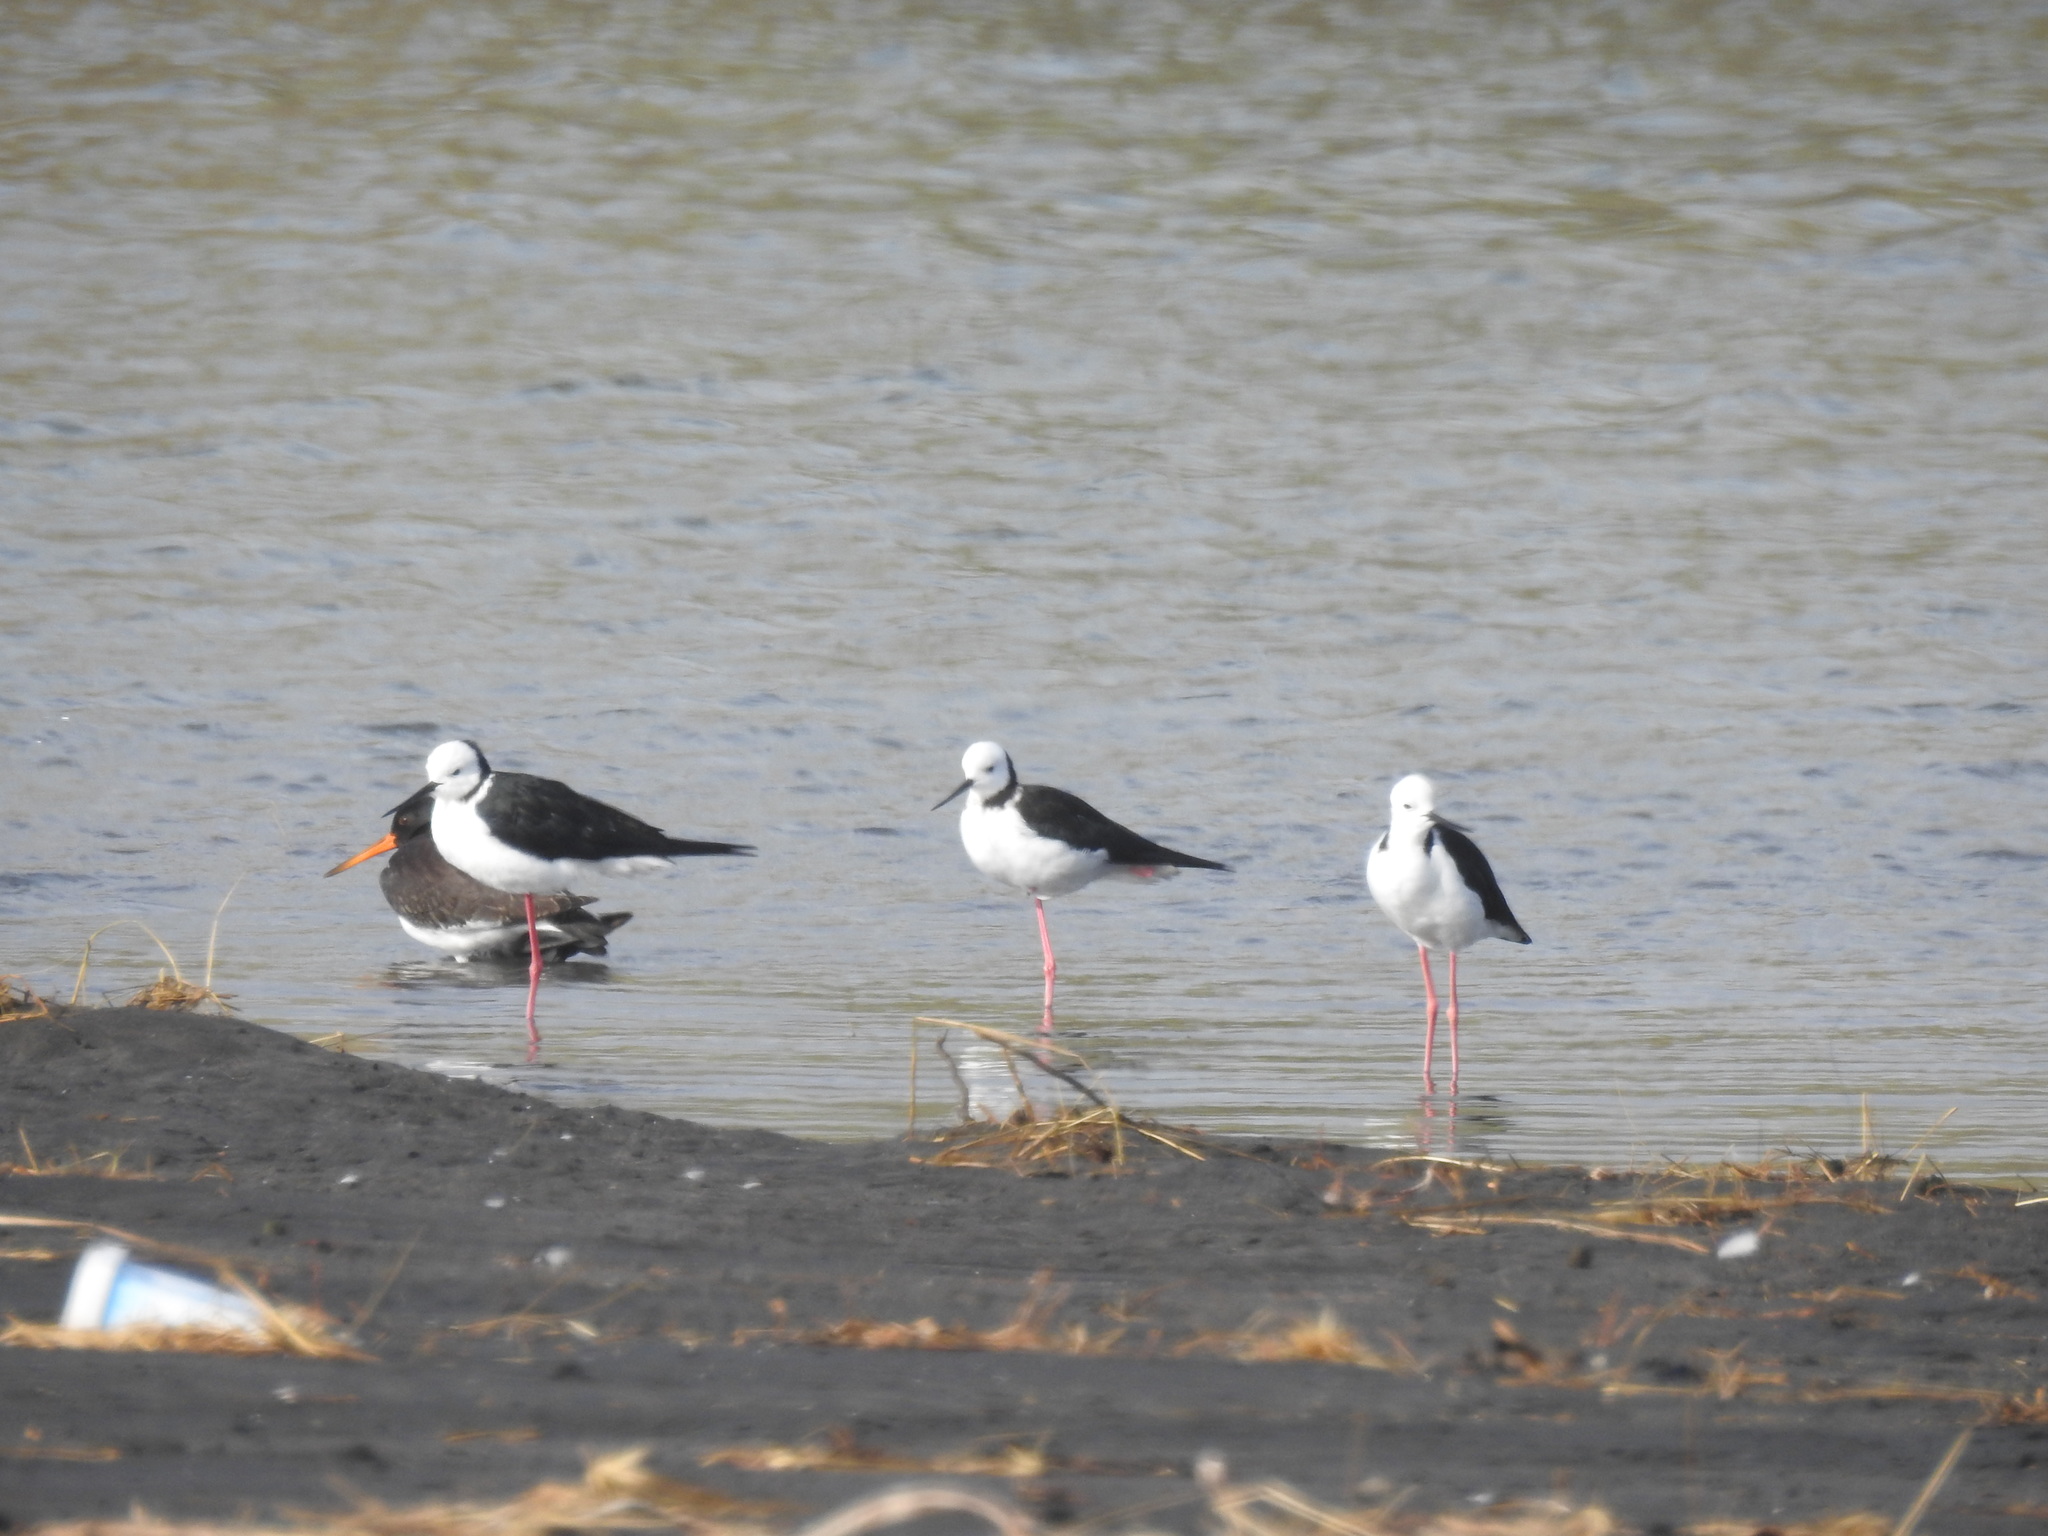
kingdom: Animalia
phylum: Chordata
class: Aves
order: Charadriiformes
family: Recurvirostridae
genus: Himantopus
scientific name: Himantopus leucocephalus
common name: White-headed stilt
